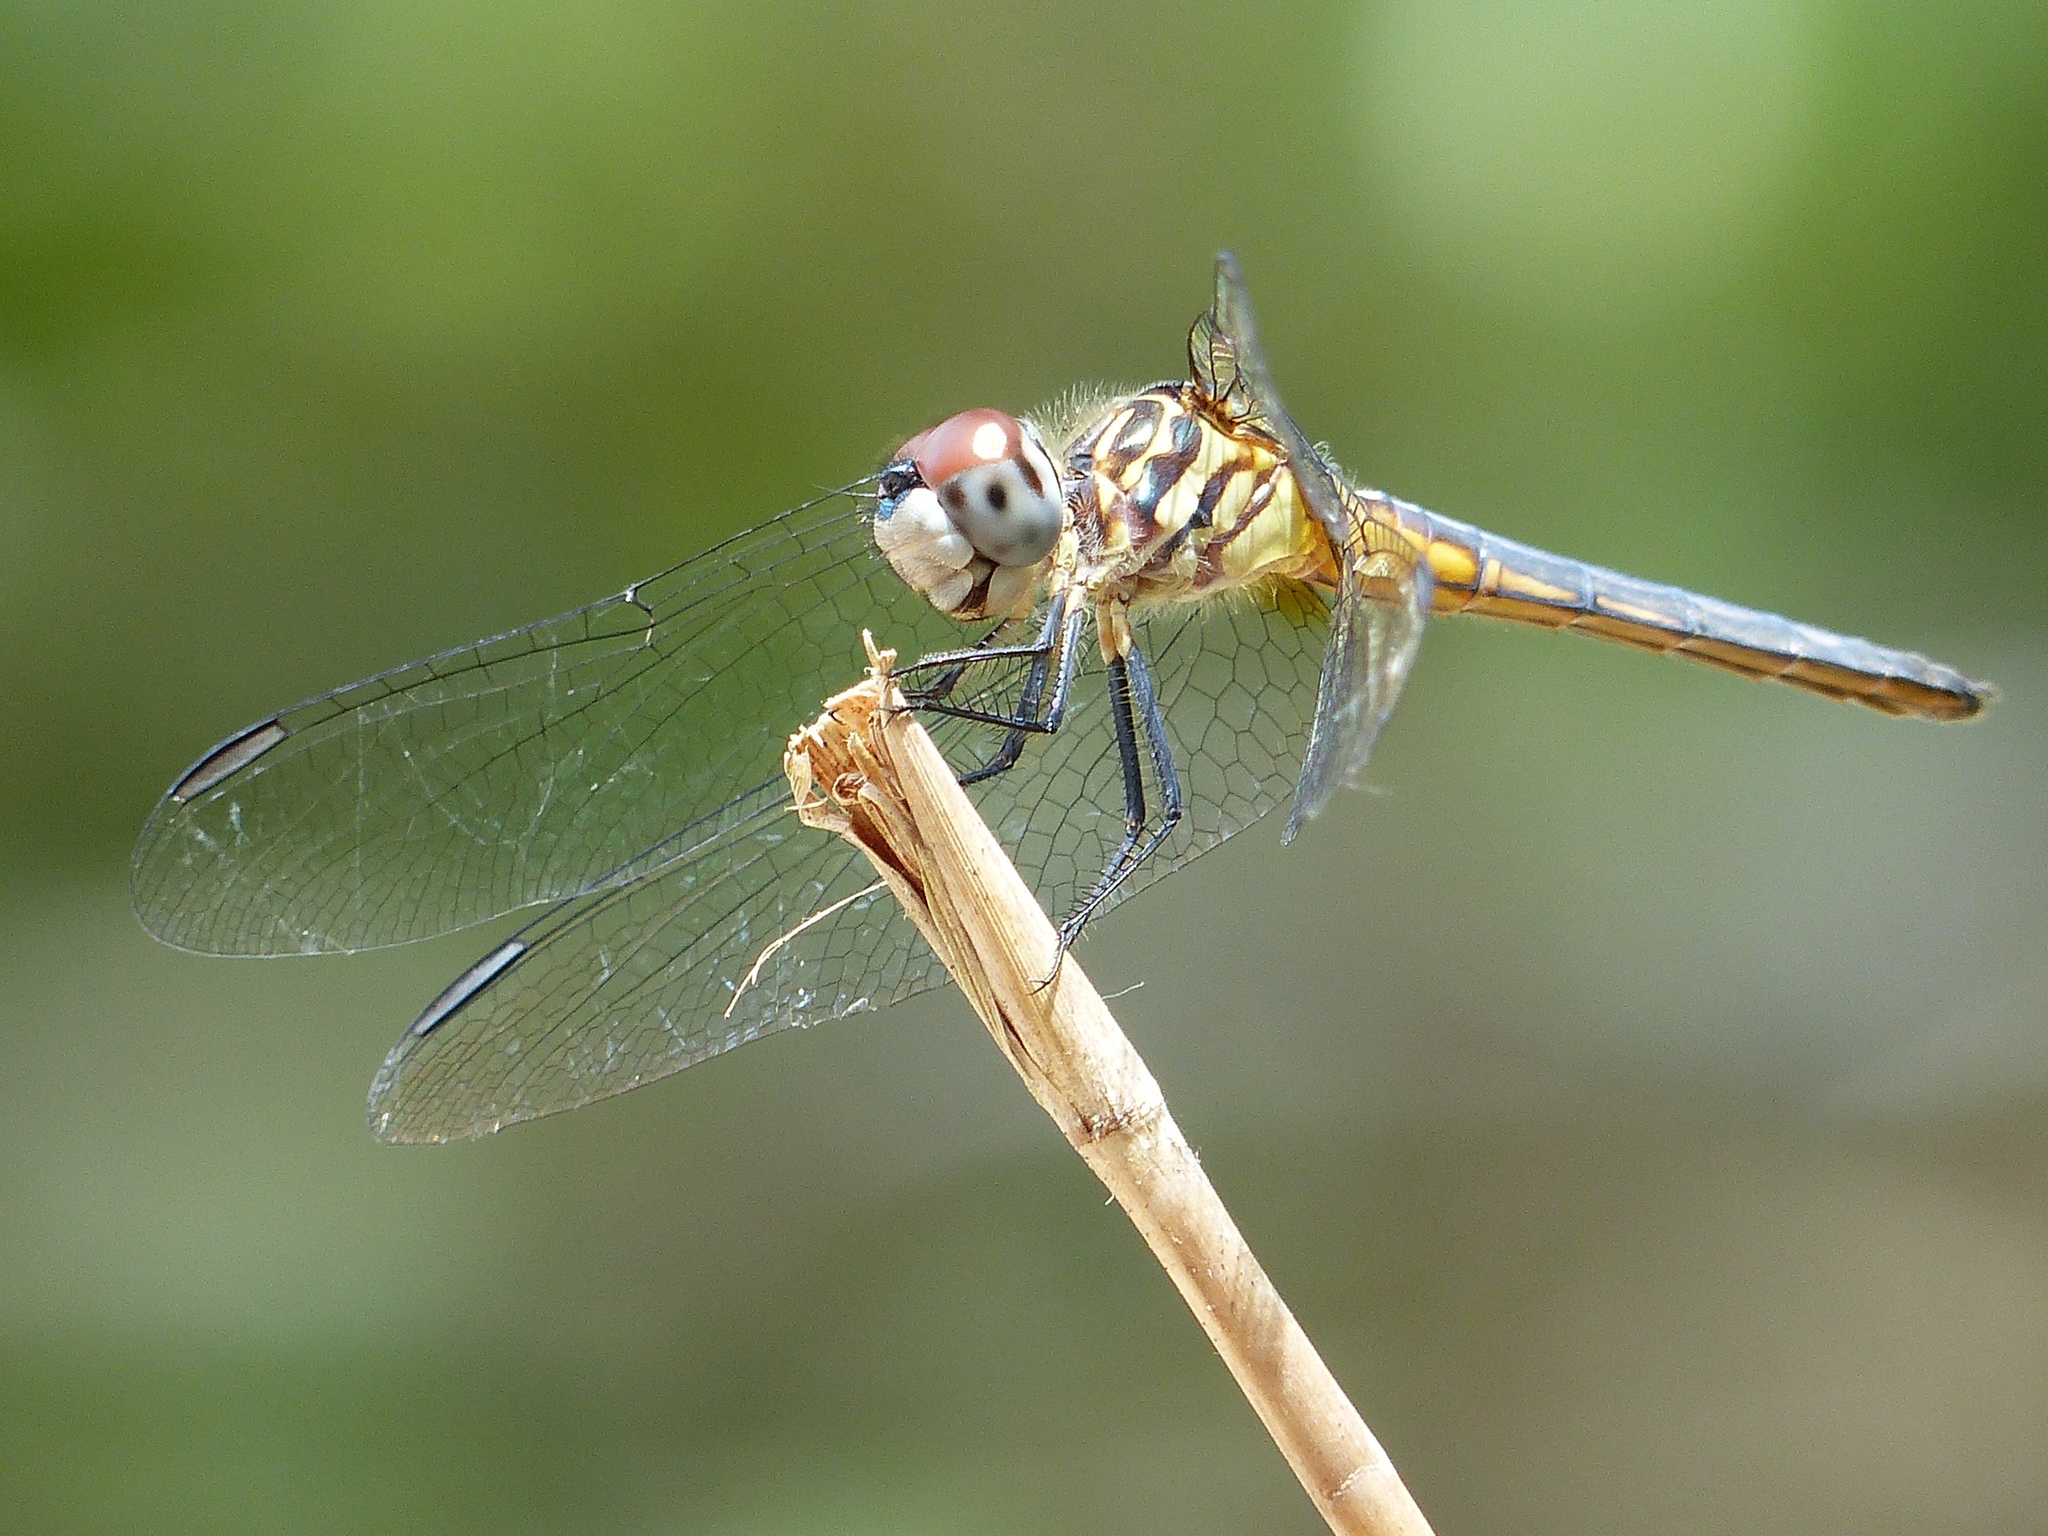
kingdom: Animalia
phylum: Arthropoda
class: Insecta
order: Odonata
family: Libellulidae
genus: Pachydiplax
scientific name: Pachydiplax longipennis
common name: Blue dasher
